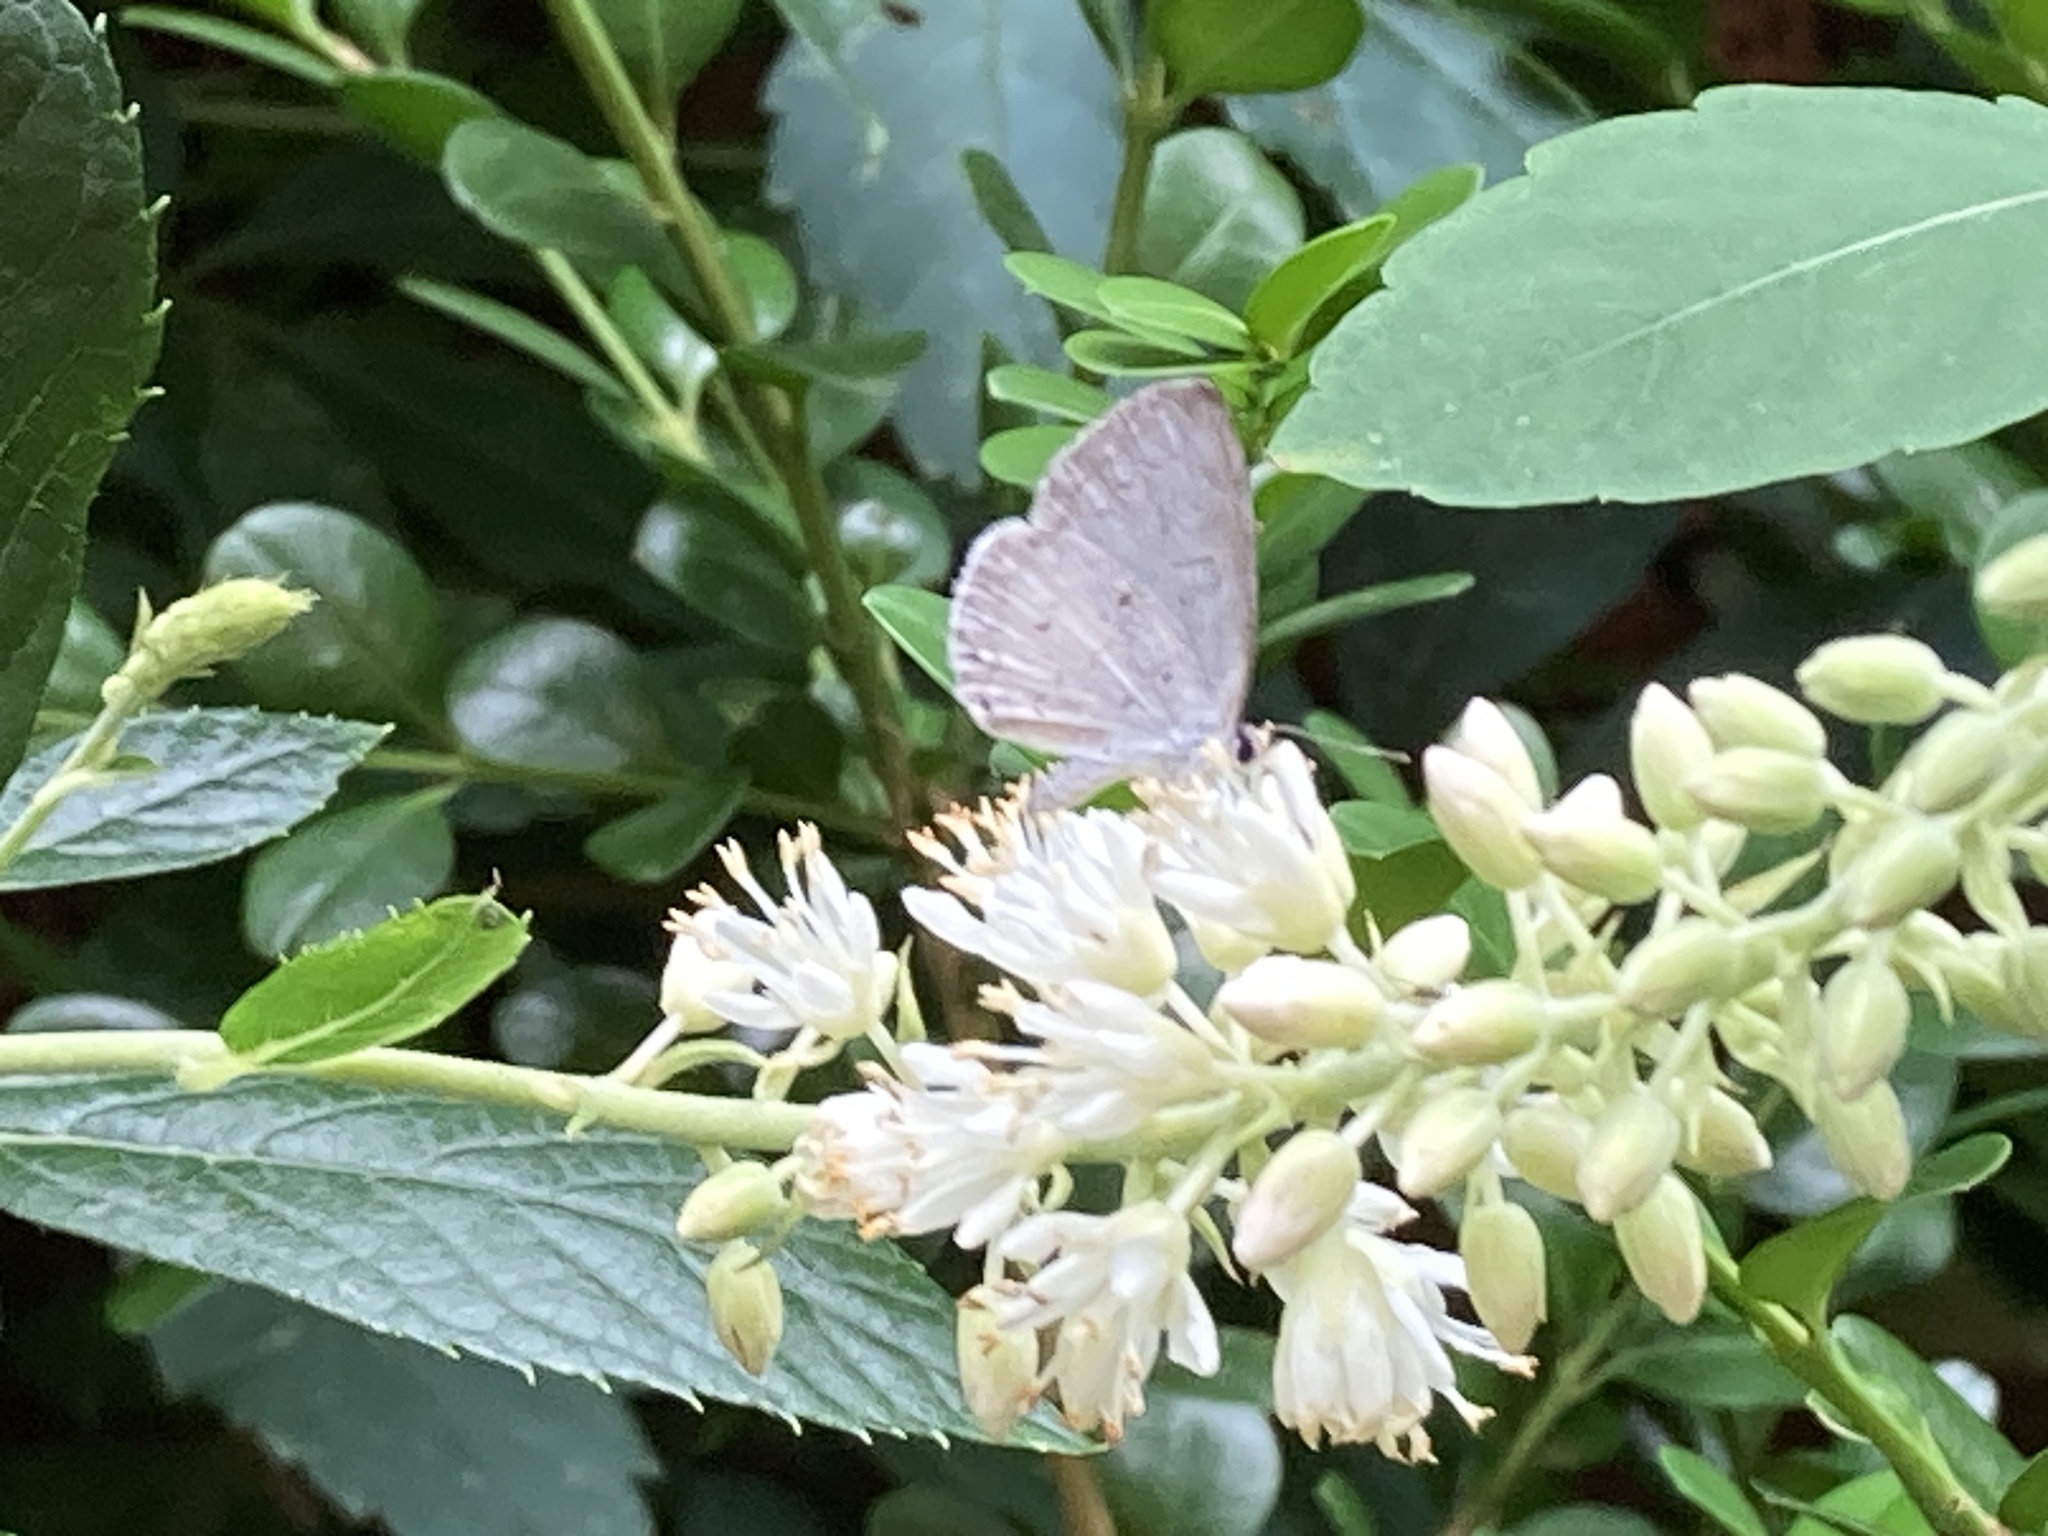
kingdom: Animalia
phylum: Arthropoda
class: Insecta
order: Lepidoptera
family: Lycaenidae
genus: Cyaniris
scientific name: Cyaniris neglecta
